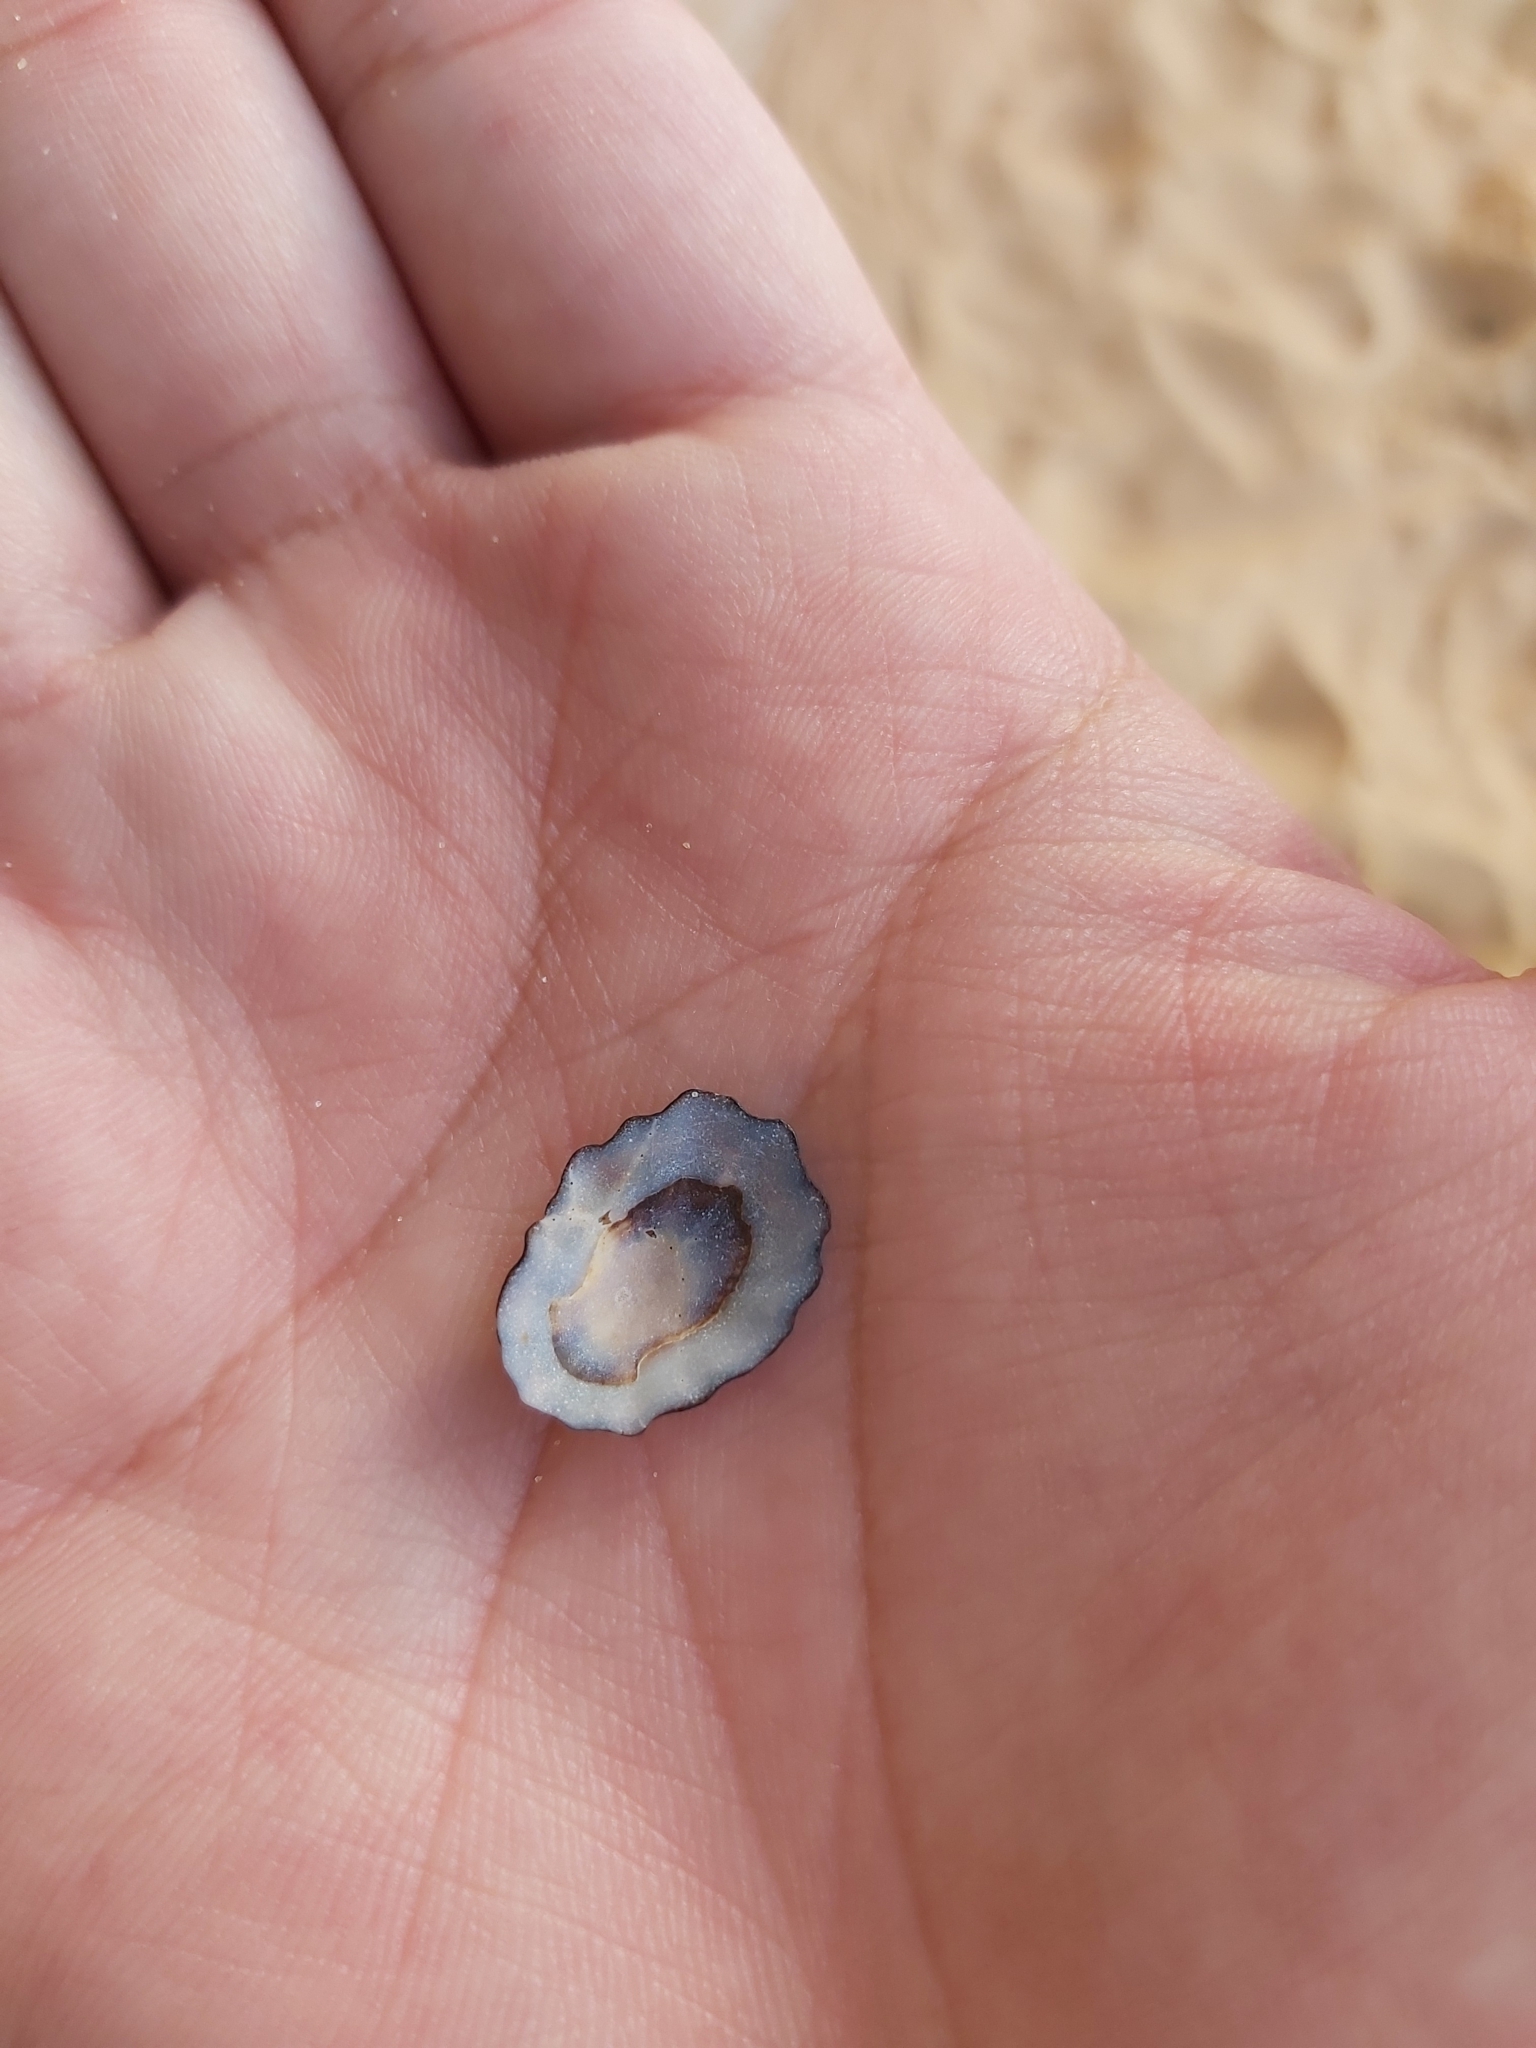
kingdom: Animalia
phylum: Mollusca
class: Gastropoda
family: Lottiidae
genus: Patelloida
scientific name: Patelloida alticostata
